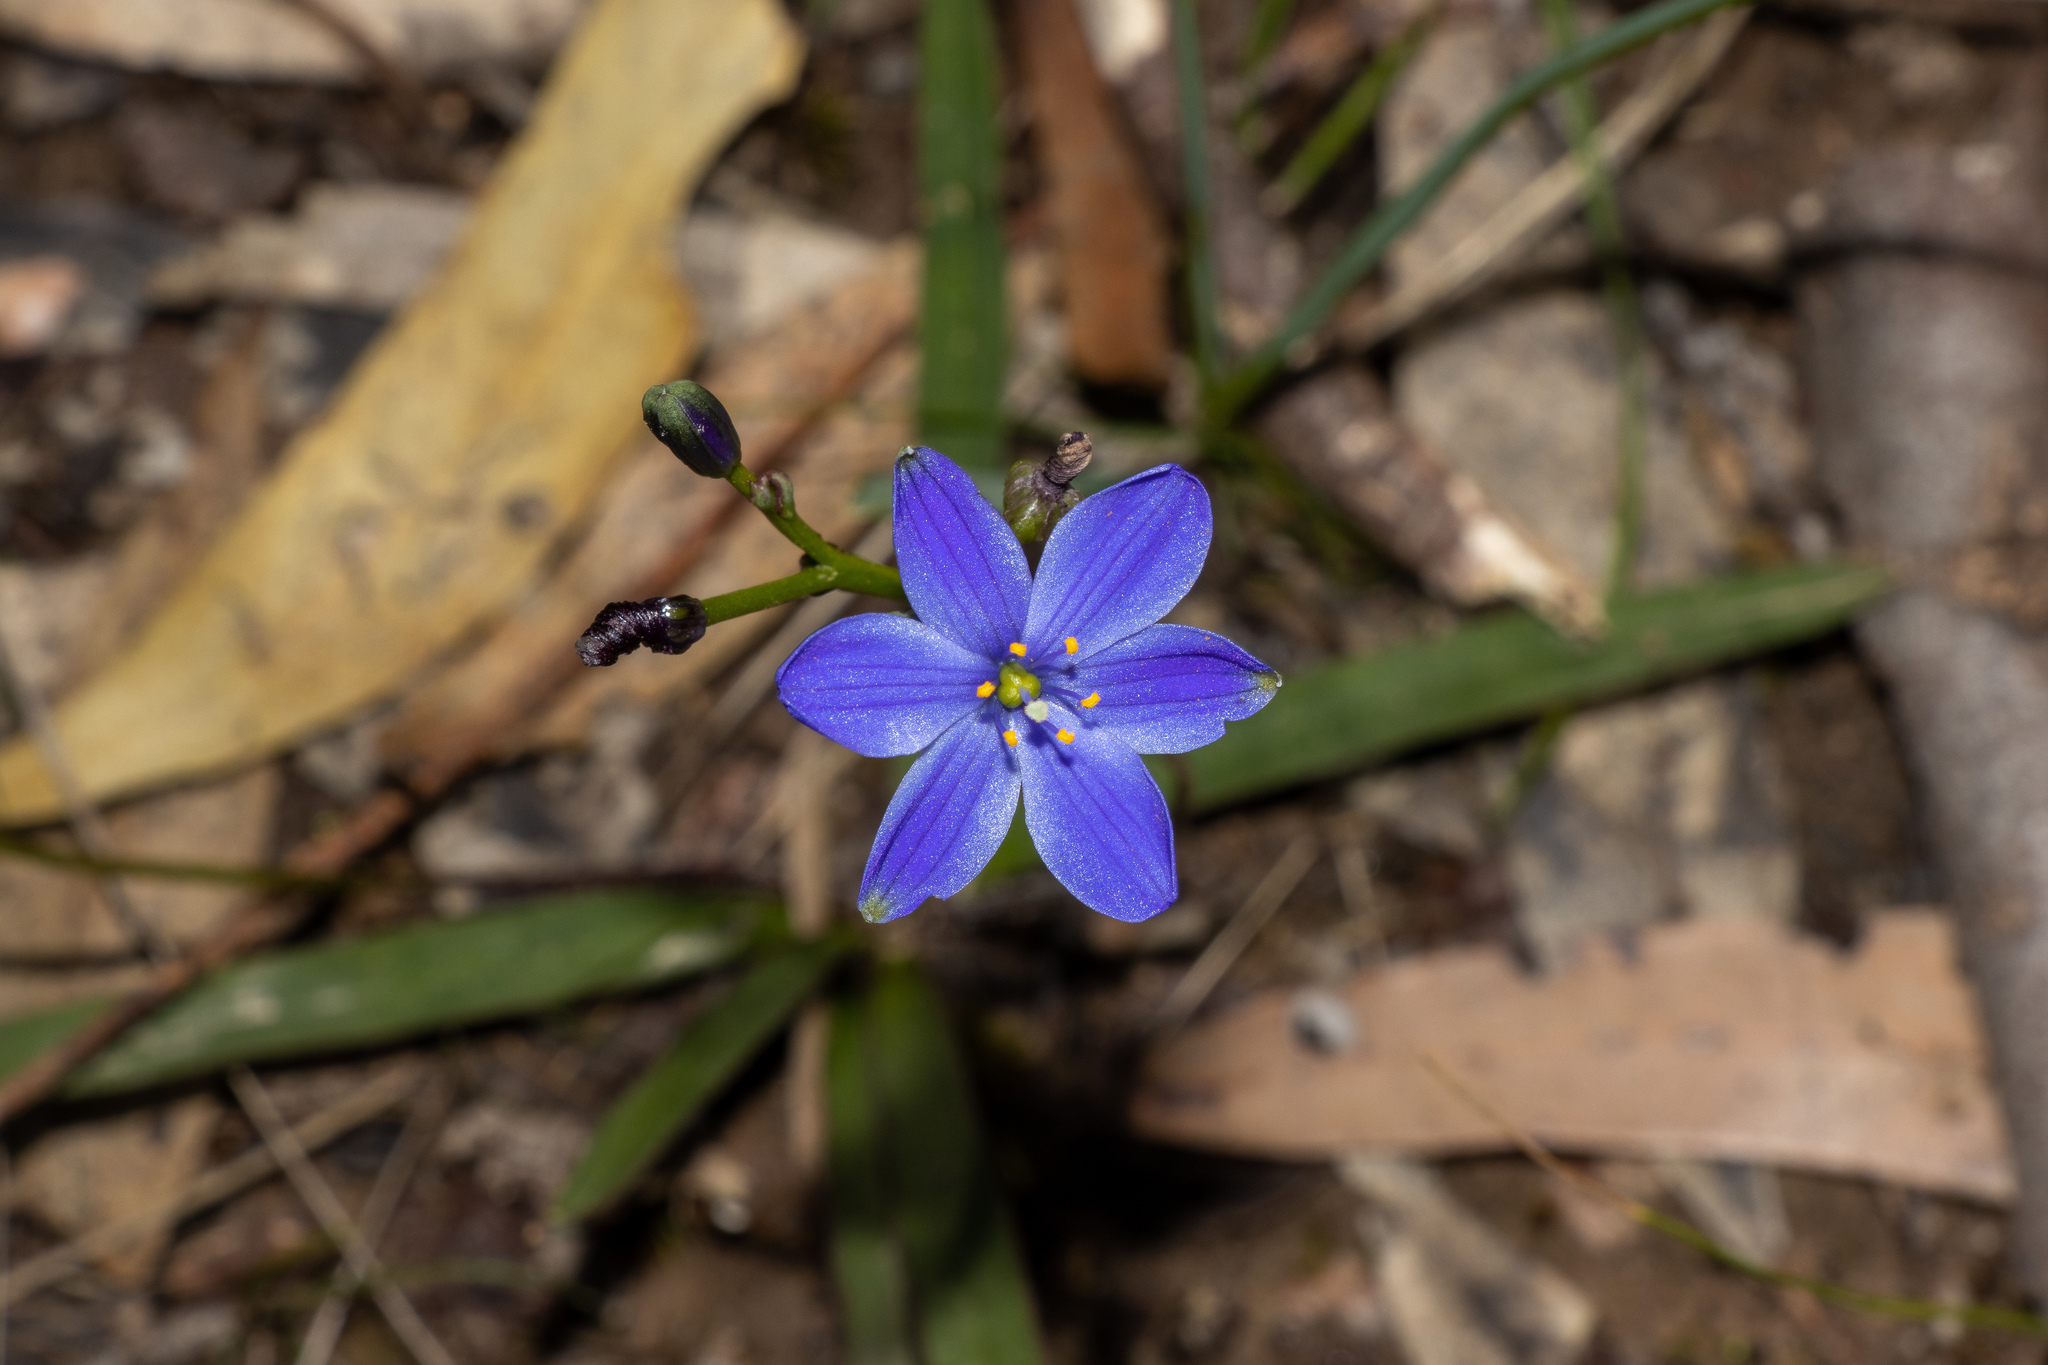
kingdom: Plantae
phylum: Tracheophyta
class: Liliopsida
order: Asparagales
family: Asphodelaceae
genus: Chamaescilla
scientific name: Chamaescilla corymbosa
